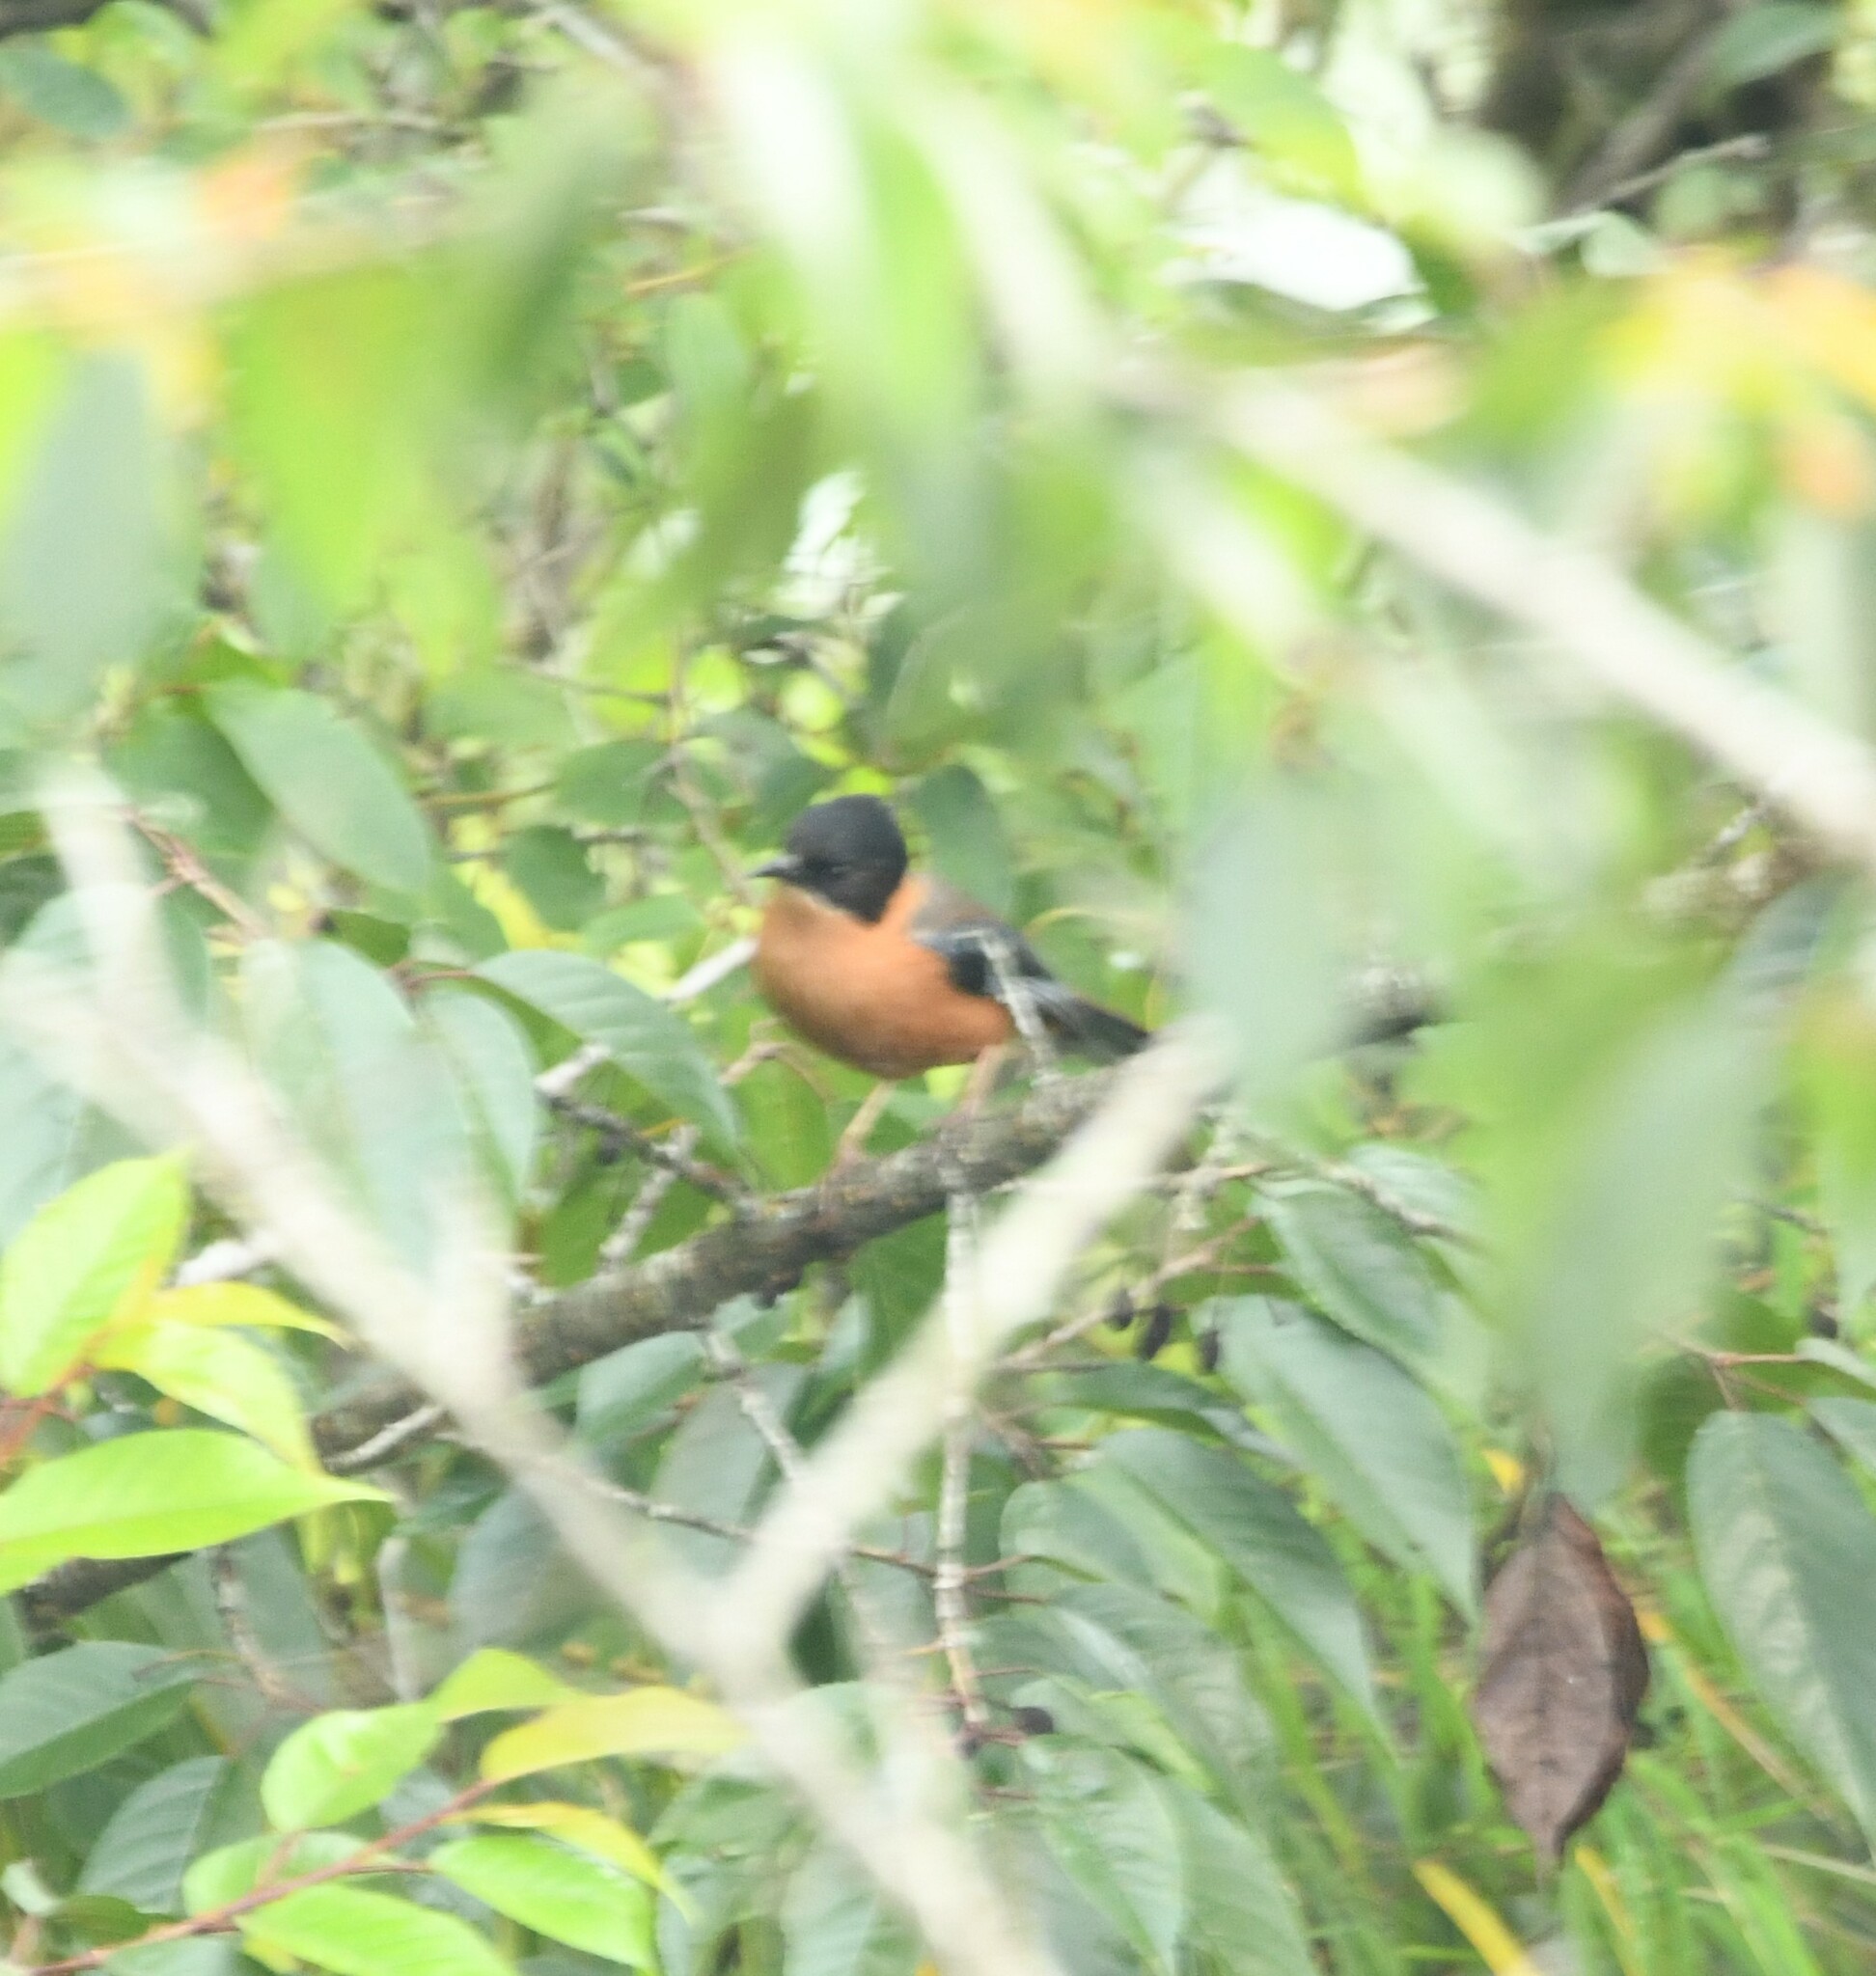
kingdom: Animalia
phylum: Chordata
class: Aves
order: Passeriformes
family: Leiothrichidae
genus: Heterophasia
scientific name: Heterophasia capistrata
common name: Rufous sibia
